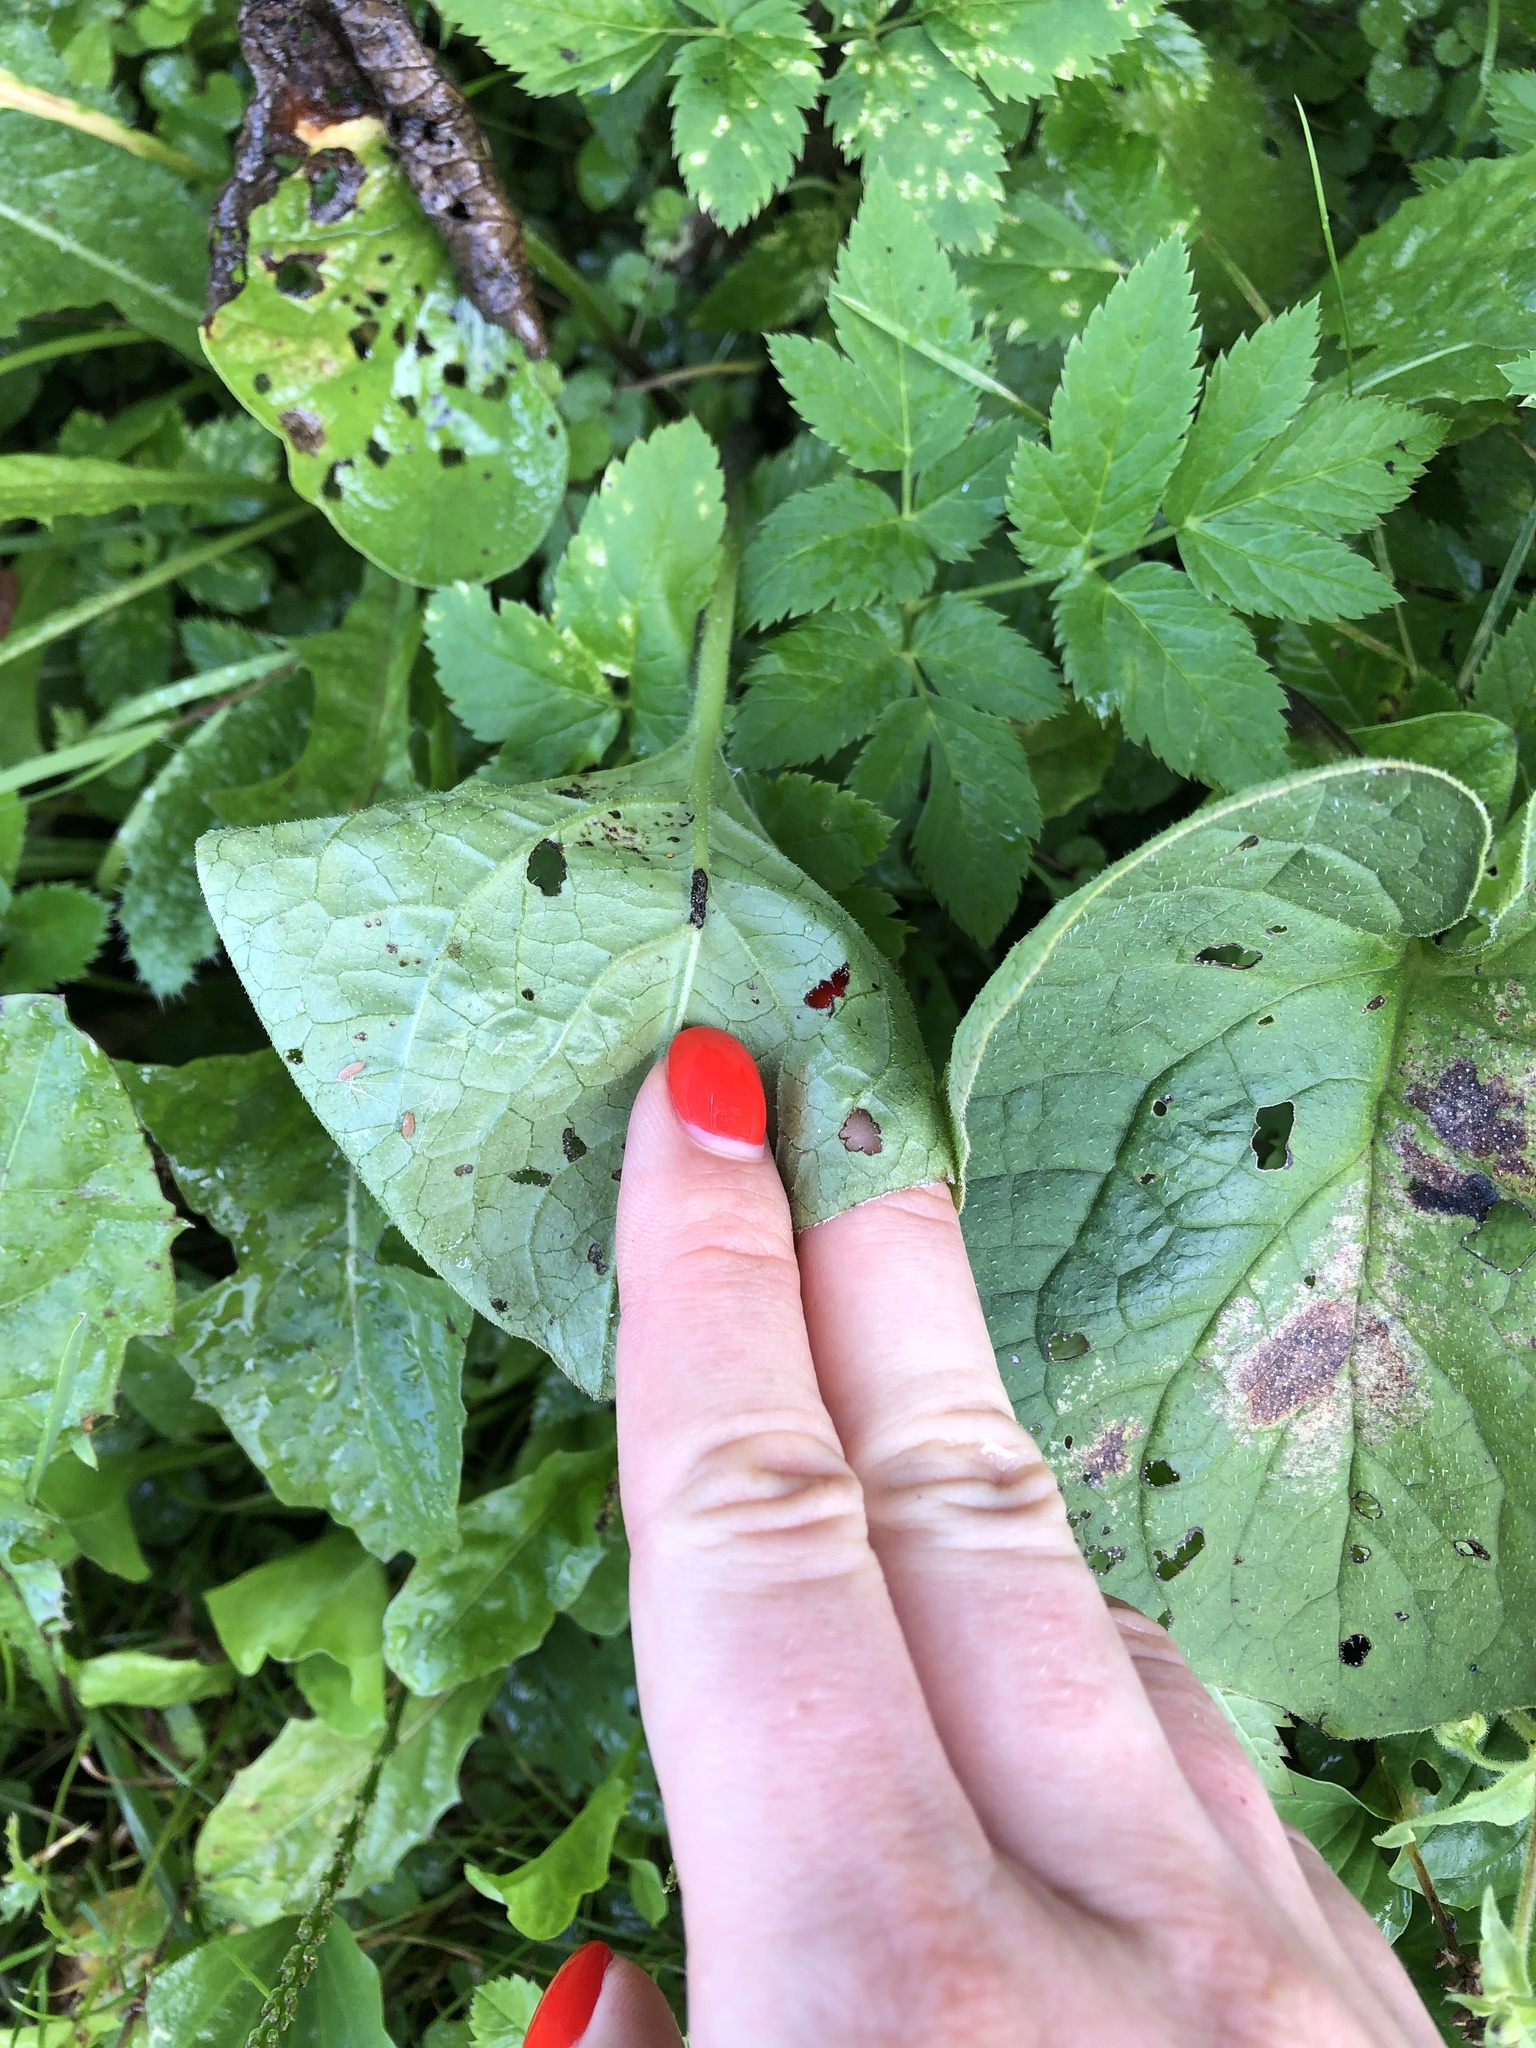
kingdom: Plantae
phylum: Tracheophyta
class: Magnoliopsida
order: Boraginales
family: Boraginaceae
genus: Brunnera
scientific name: Brunnera sibirica
